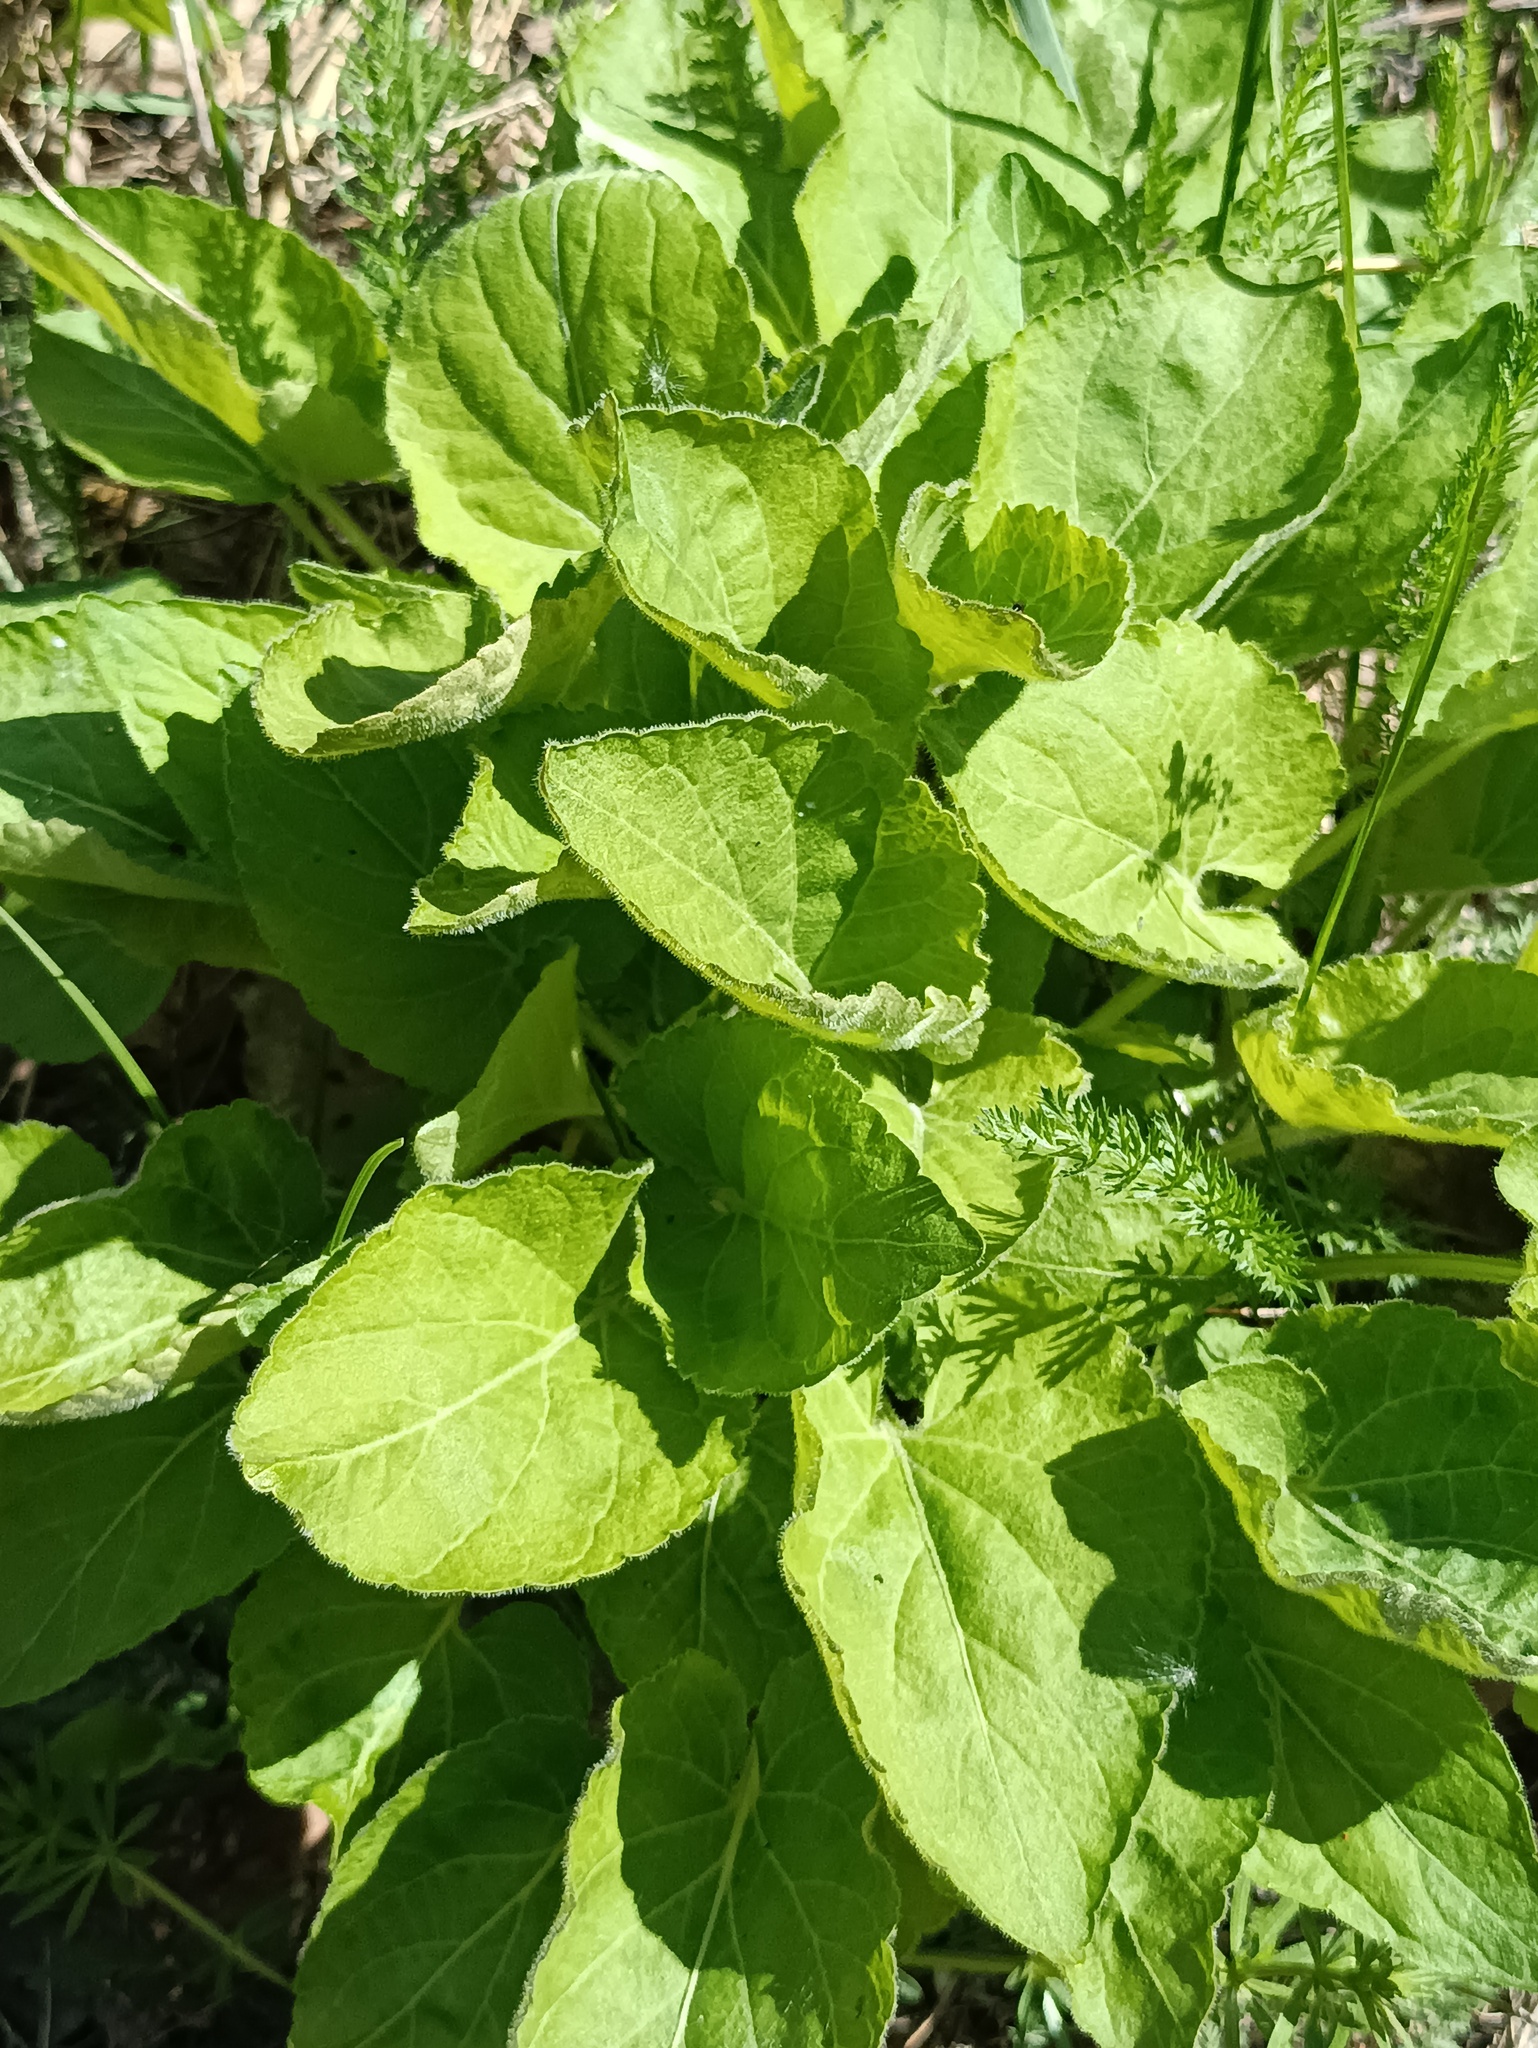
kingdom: Plantae
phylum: Tracheophyta
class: Magnoliopsida
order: Malpighiales
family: Violaceae
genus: Viola
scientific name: Viola collina
